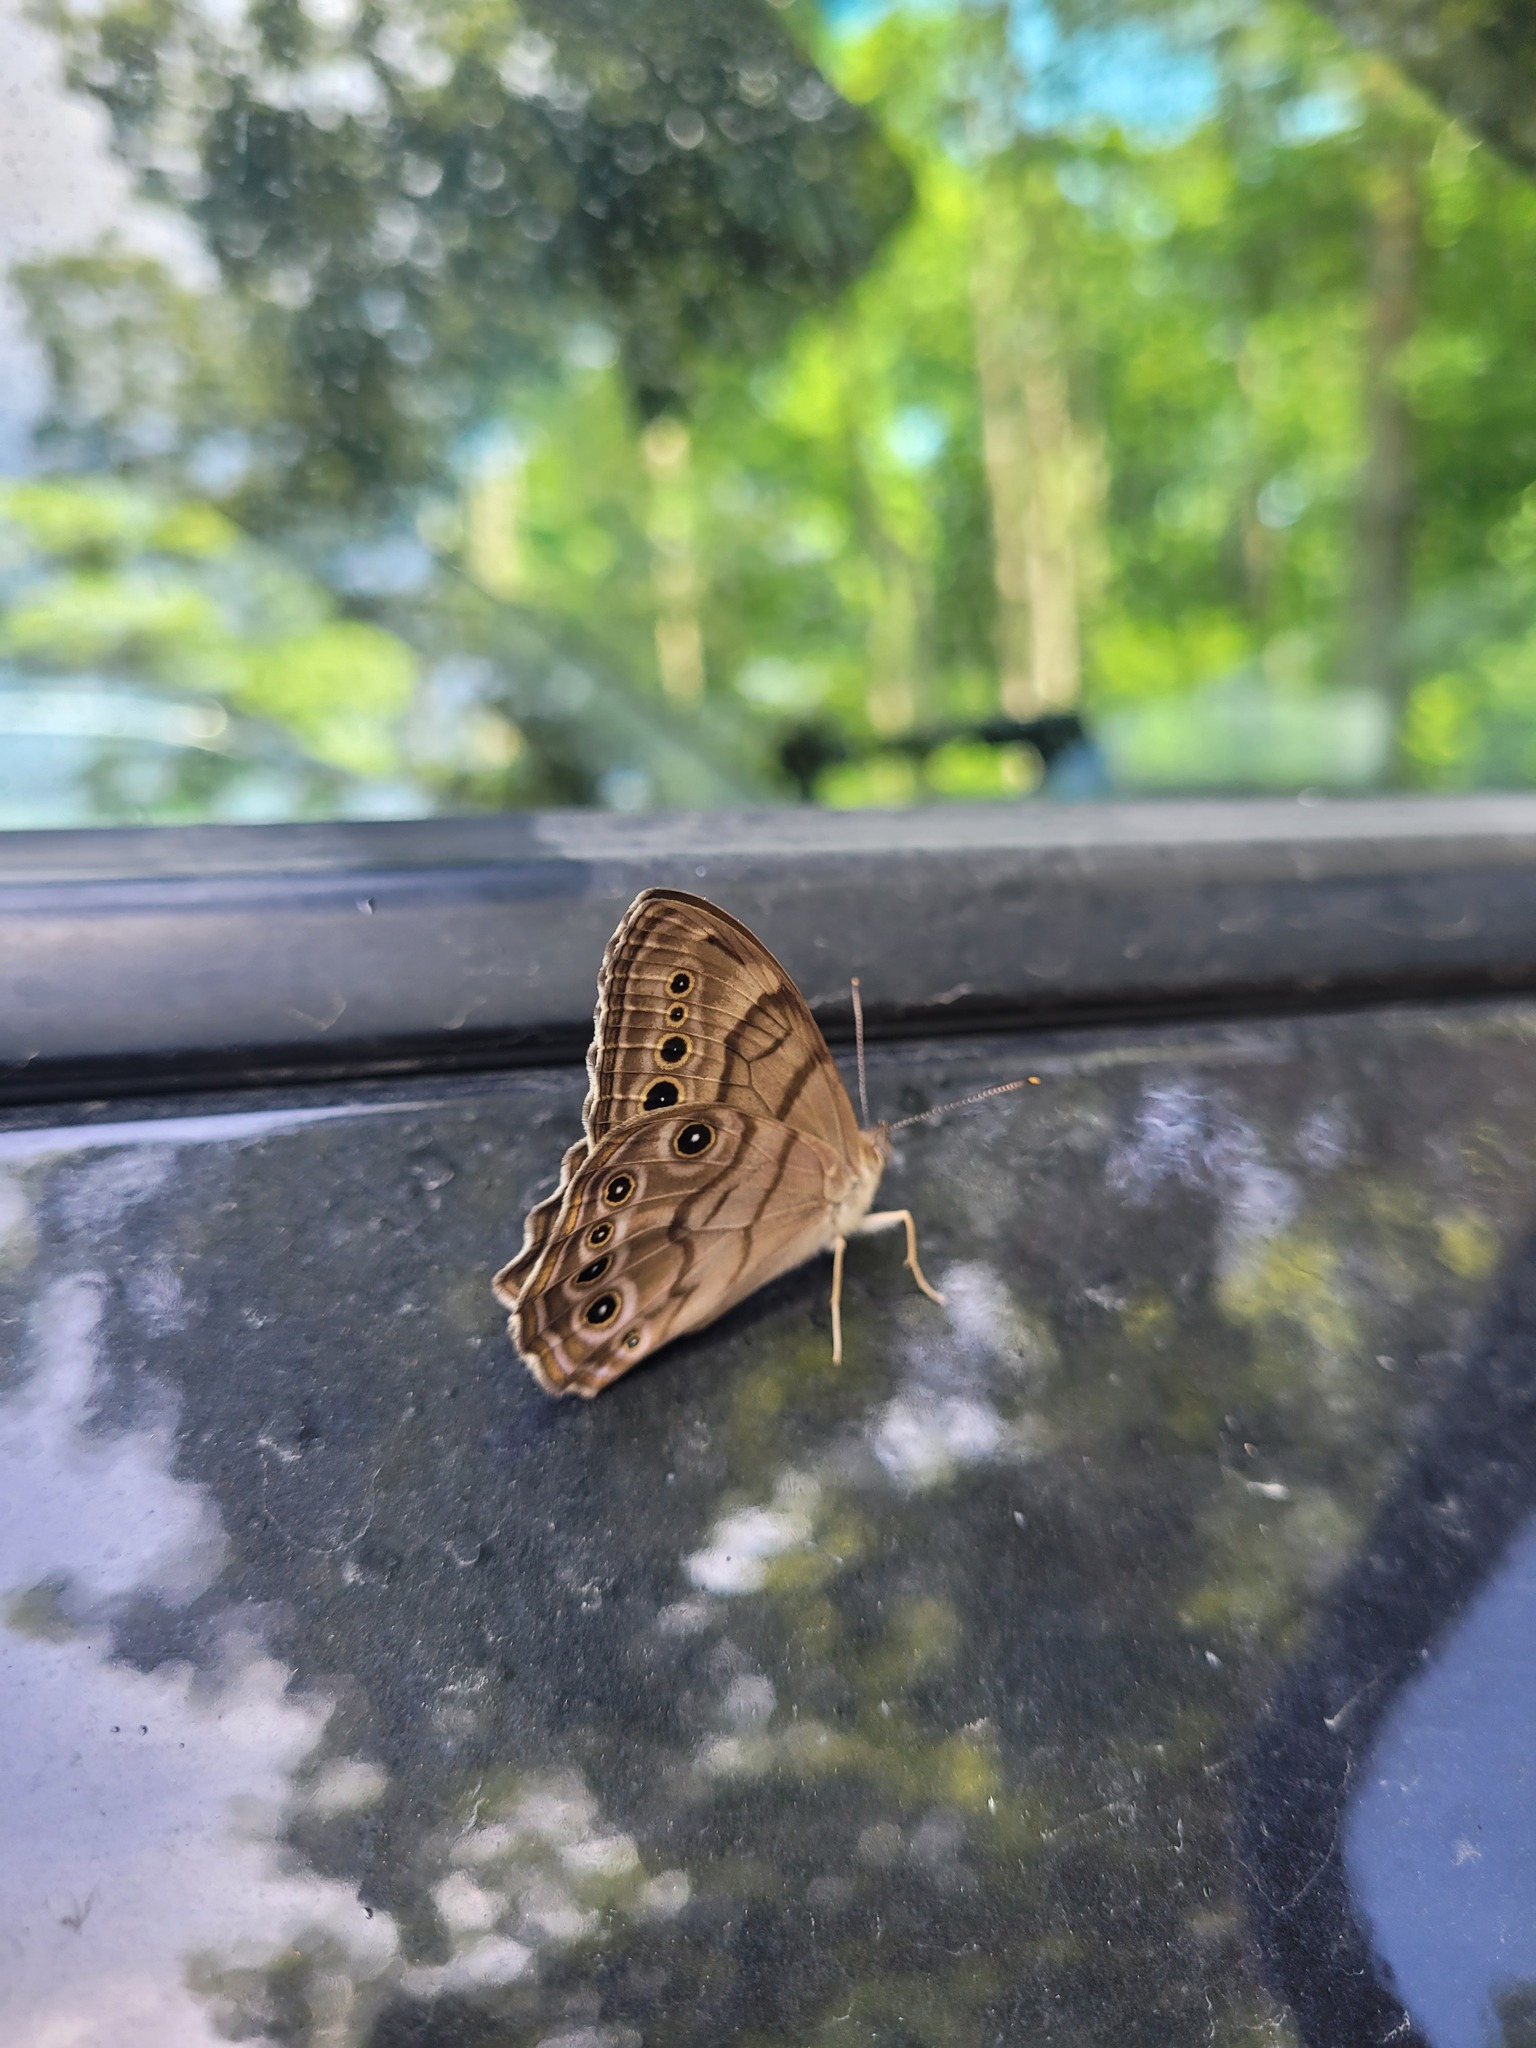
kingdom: Animalia
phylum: Arthropoda
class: Insecta
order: Lepidoptera
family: Nymphalidae
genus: Lethe
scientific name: Lethe anthedon
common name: Northern pearly-eye
